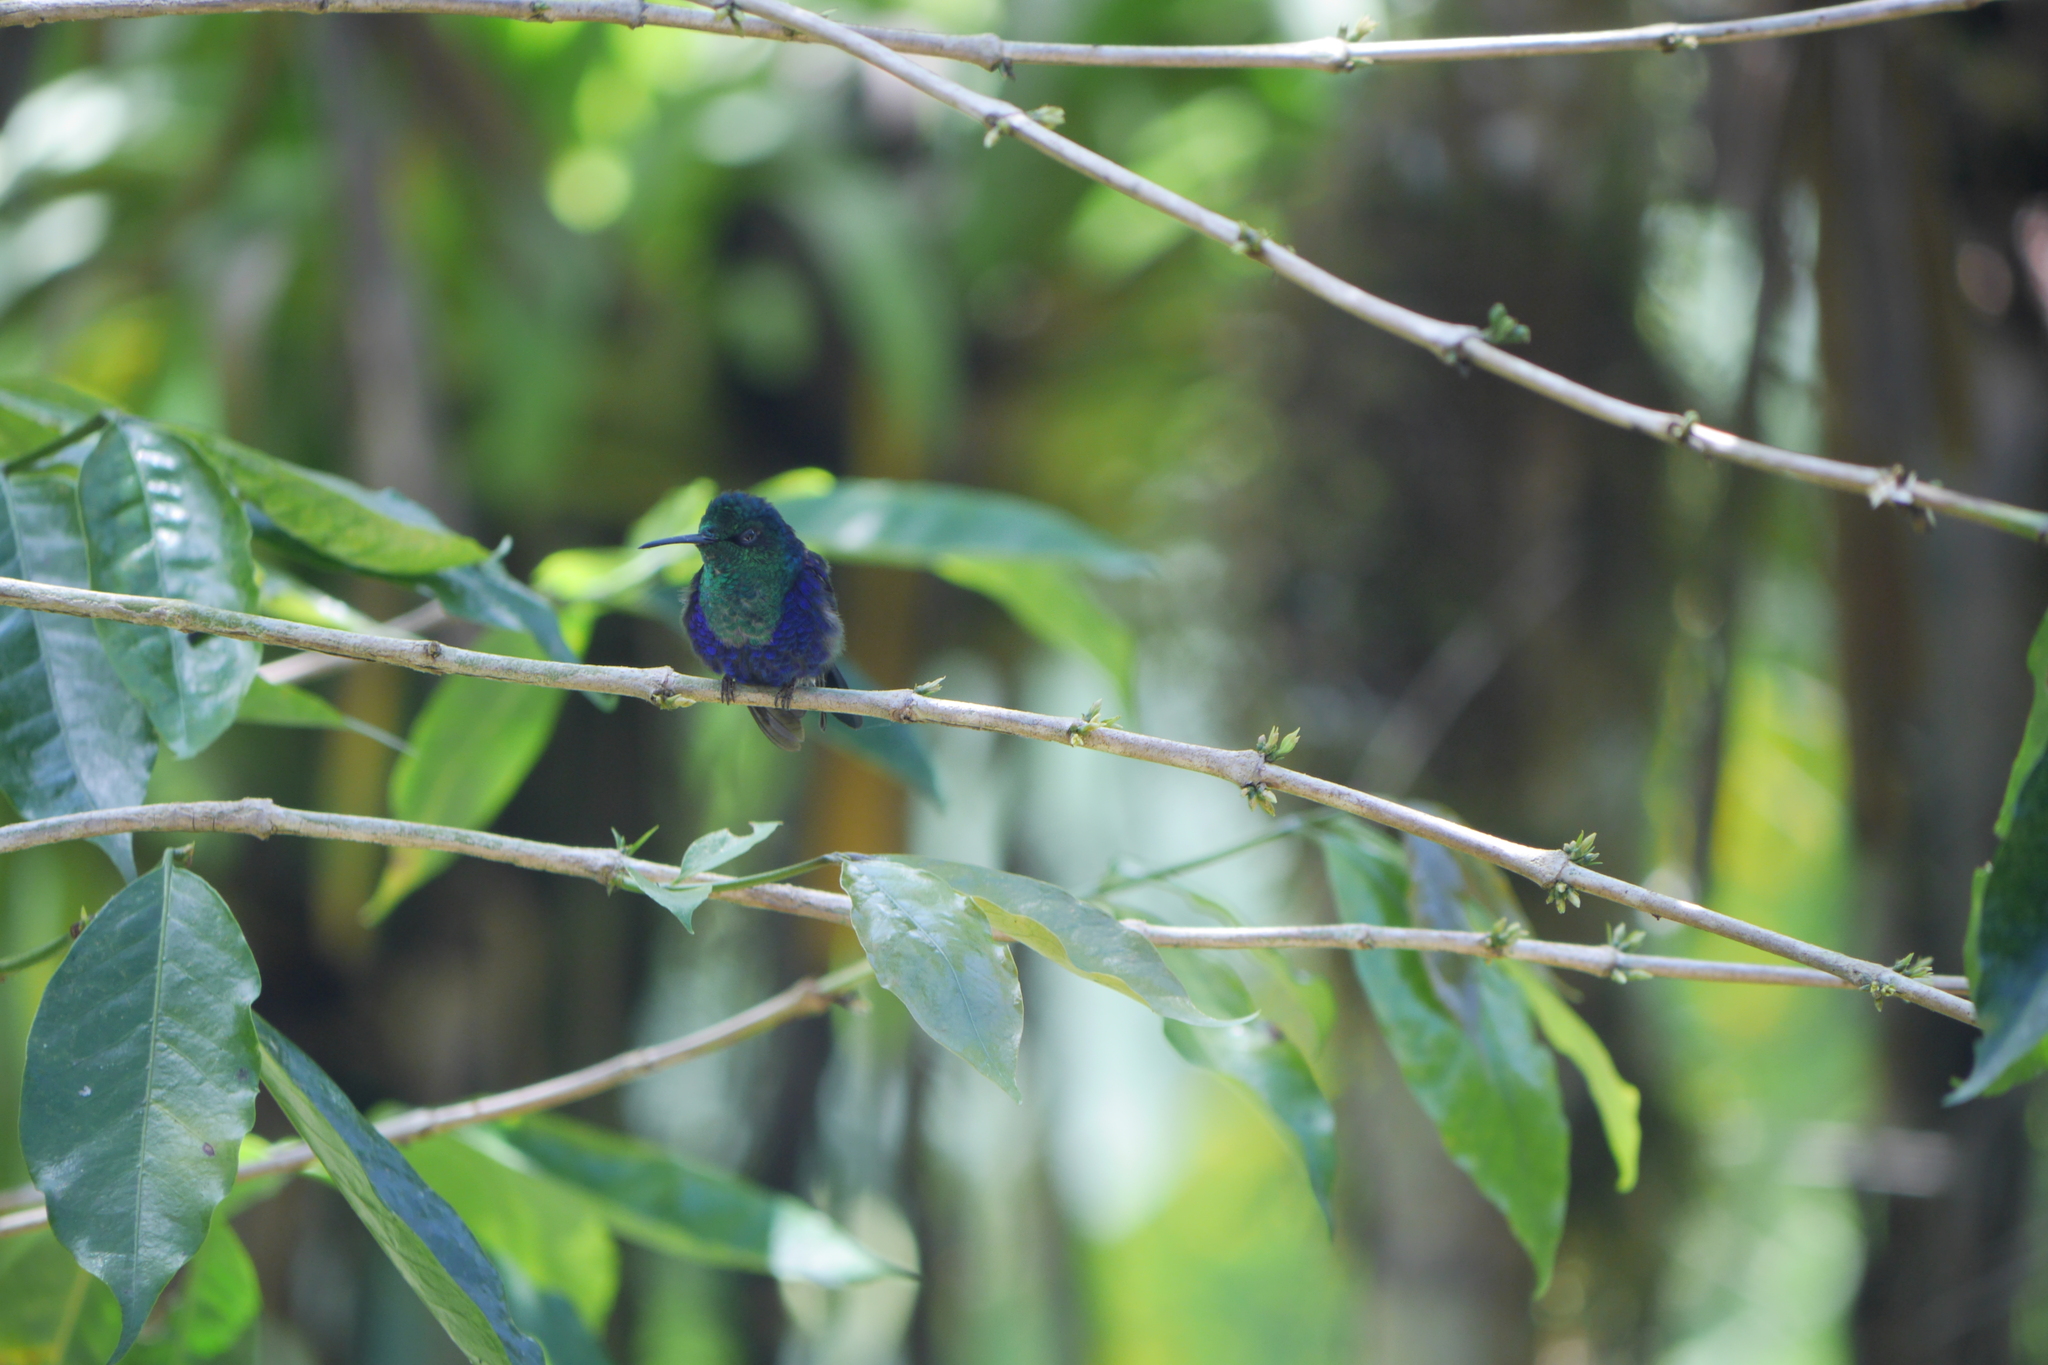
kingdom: Animalia
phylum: Chordata
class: Aves
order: Apodiformes
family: Trochilidae
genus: Thalurania
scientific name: Thalurania colombica
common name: Crowned woodnymph
